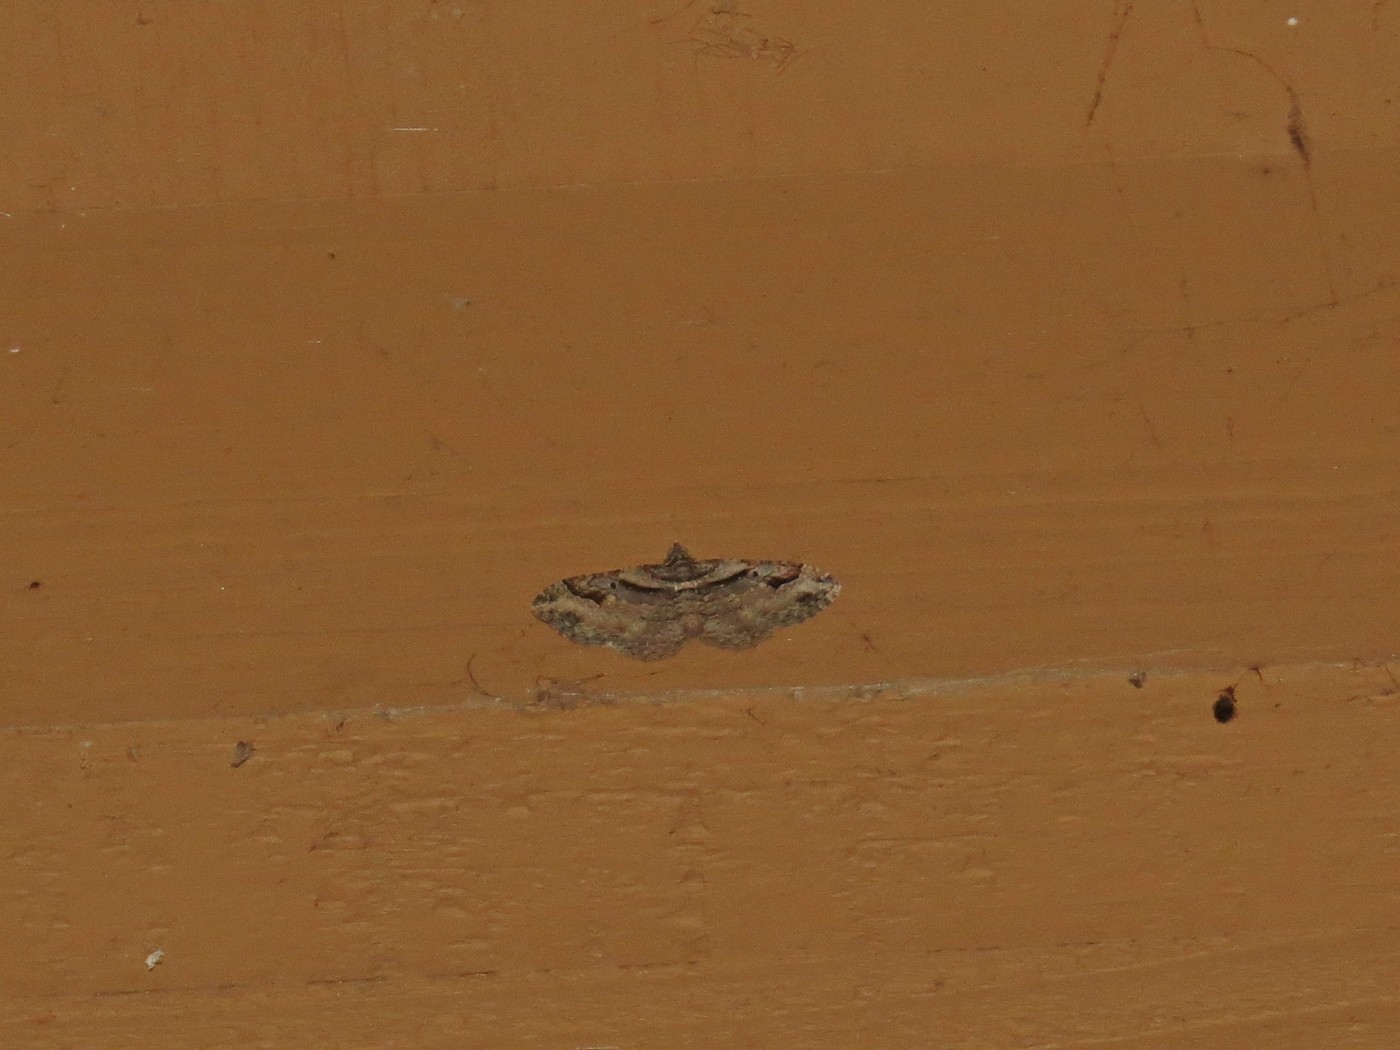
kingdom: Animalia
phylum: Arthropoda
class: Insecta
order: Lepidoptera
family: Geometridae
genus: Costaconvexa
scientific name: Costaconvexa centrostrigaria
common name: Bent-line carpet
